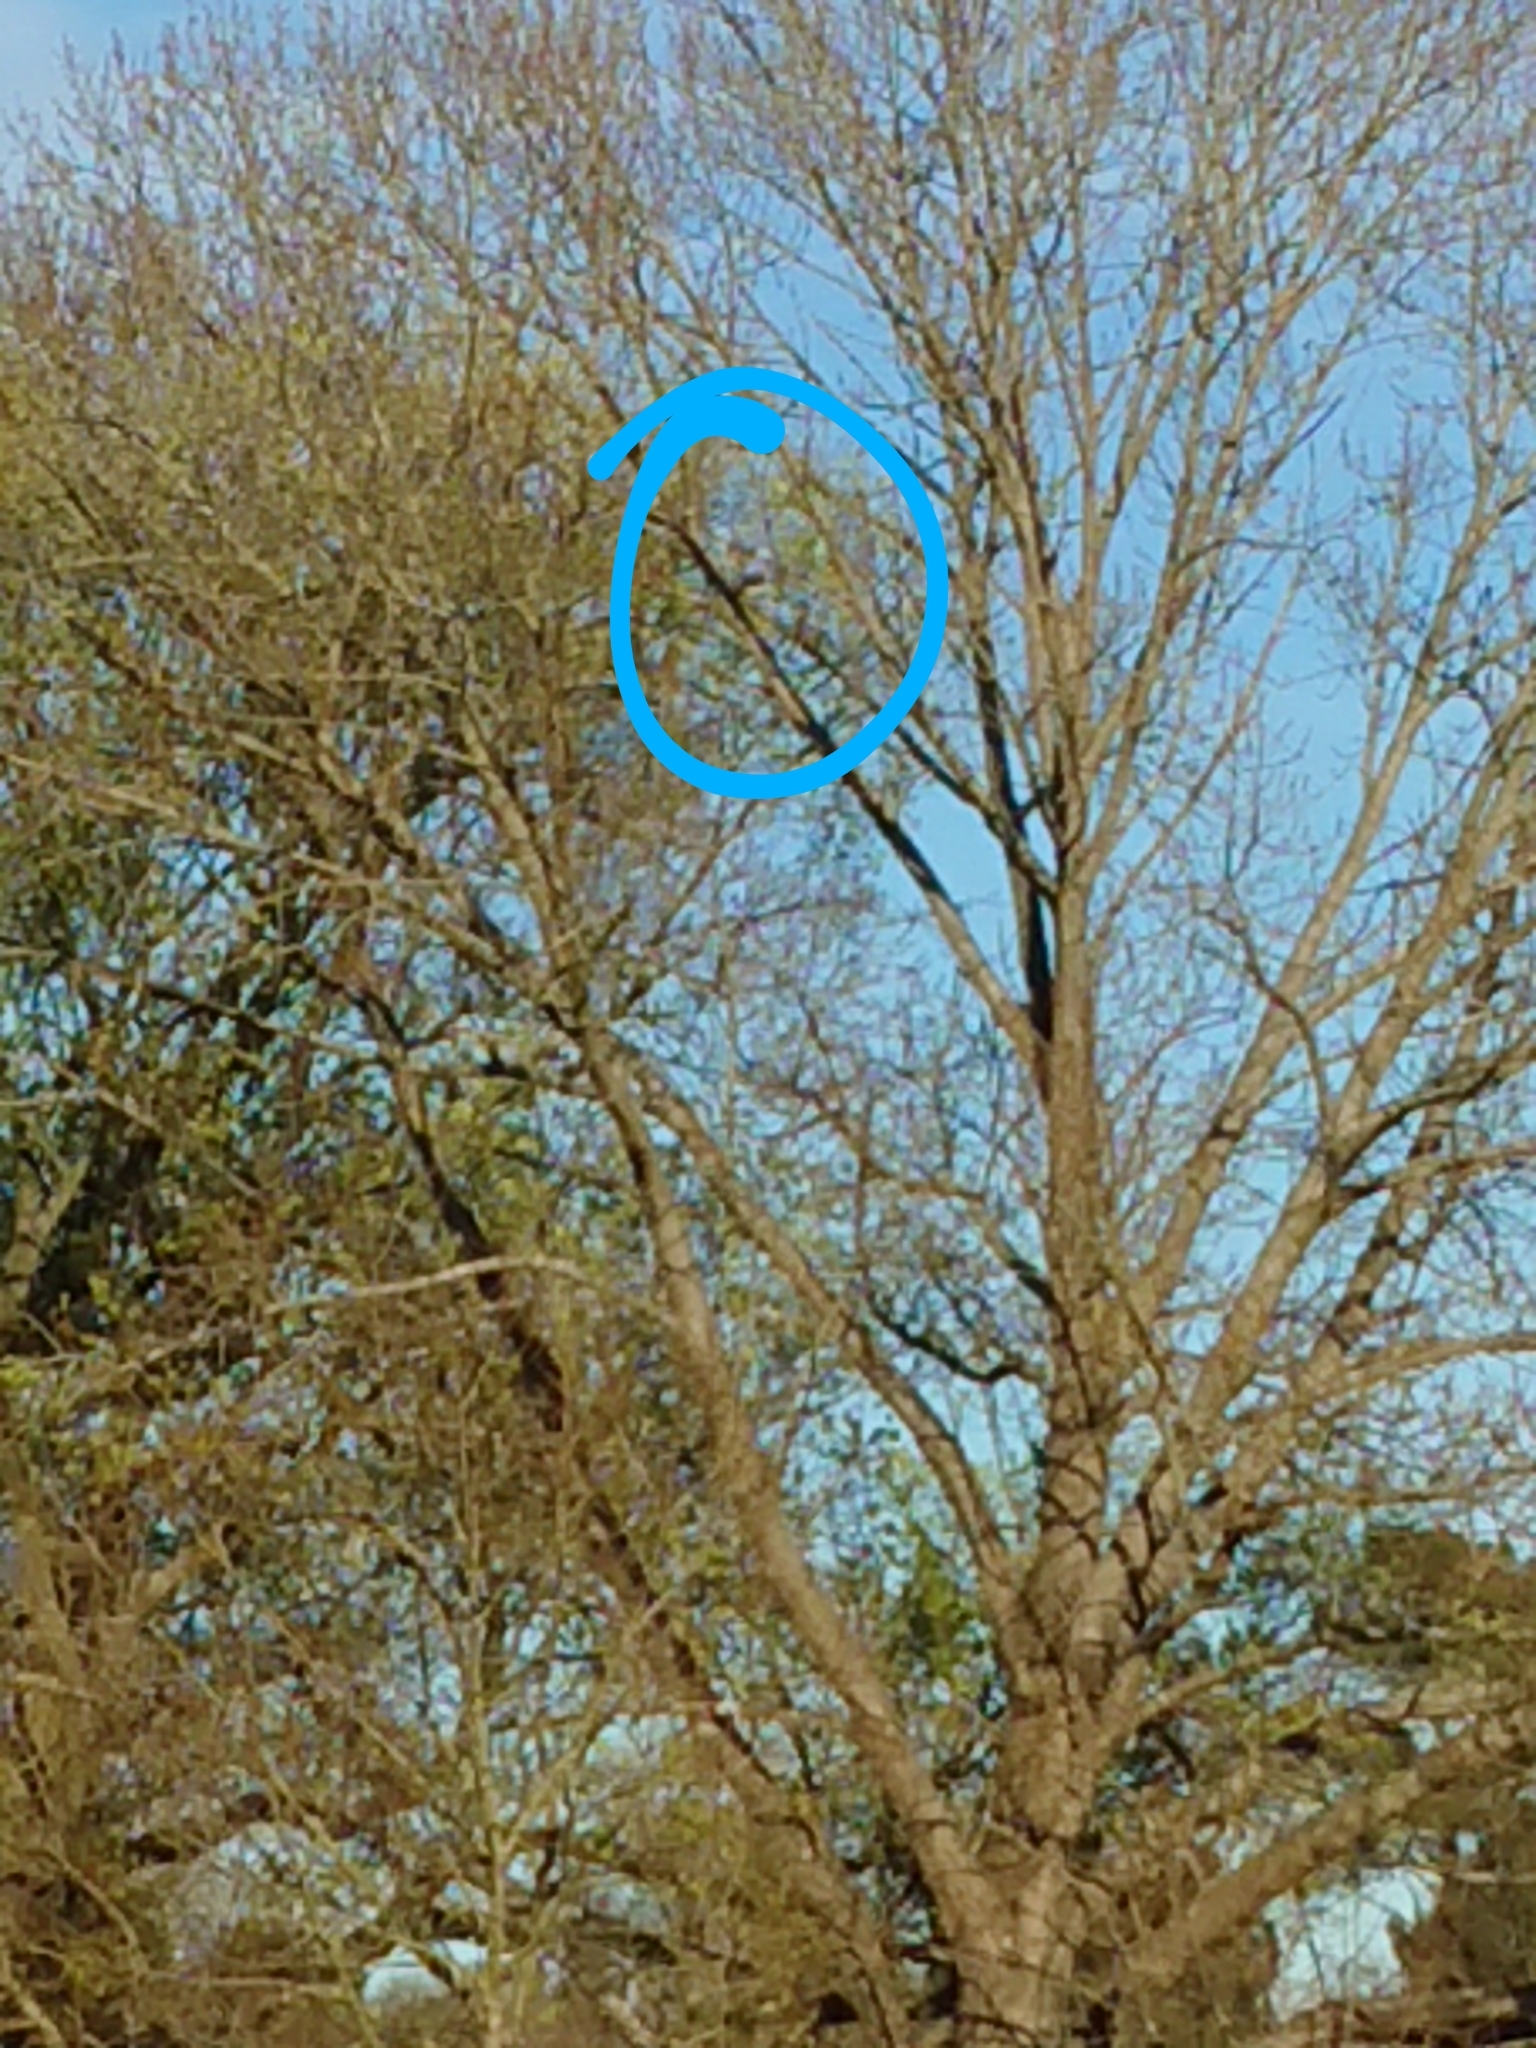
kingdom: Animalia
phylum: Chordata
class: Aves
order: Columbiformes
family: Columbidae
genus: Hemiphaga
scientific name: Hemiphaga novaeseelandiae
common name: New zealand pigeon
